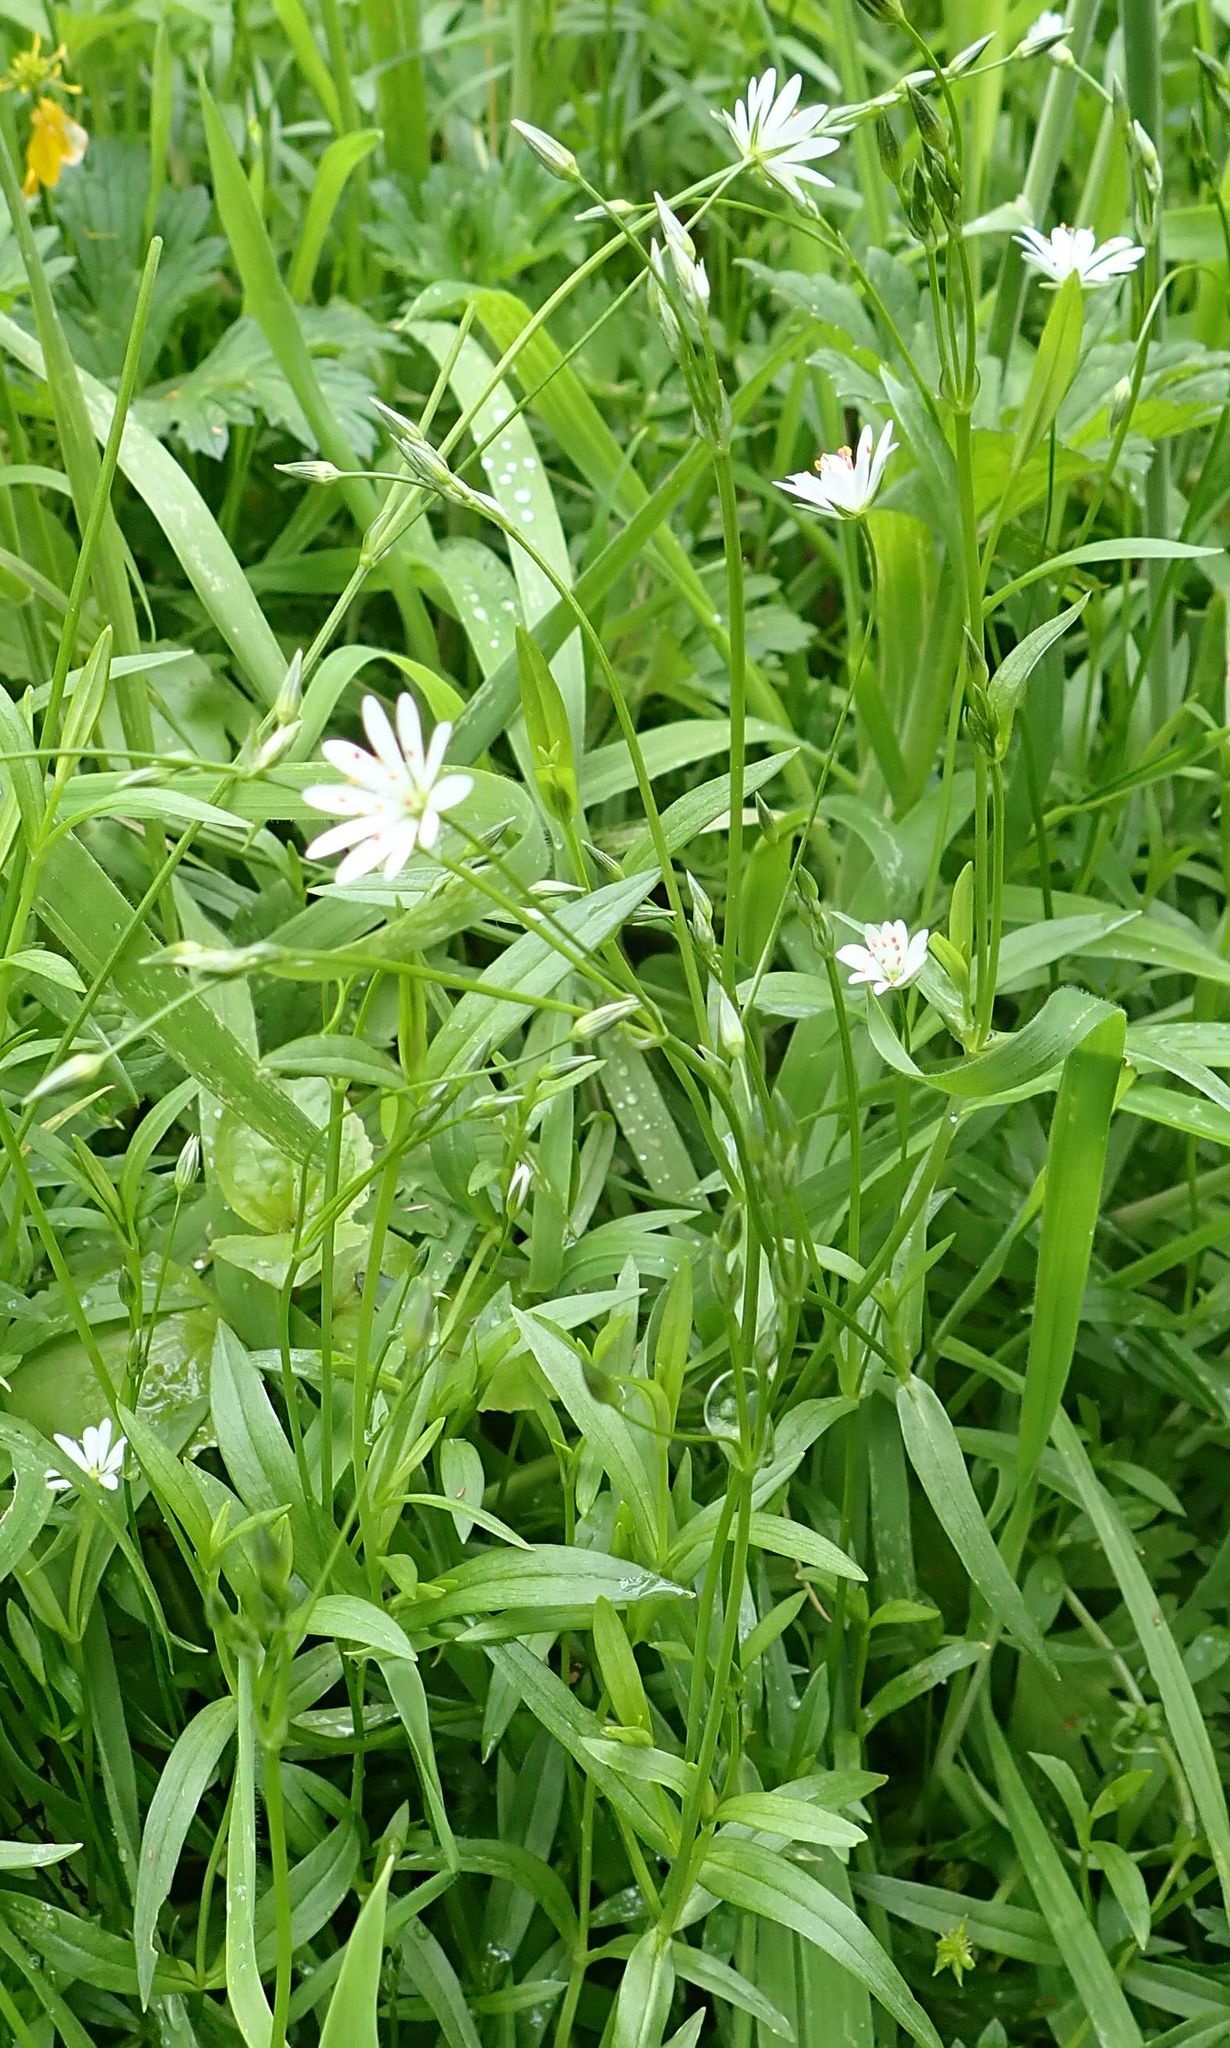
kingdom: Plantae
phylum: Tracheophyta
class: Magnoliopsida
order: Caryophyllales
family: Caryophyllaceae
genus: Stellaria
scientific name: Stellaria graminea
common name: Grass-like starwort
